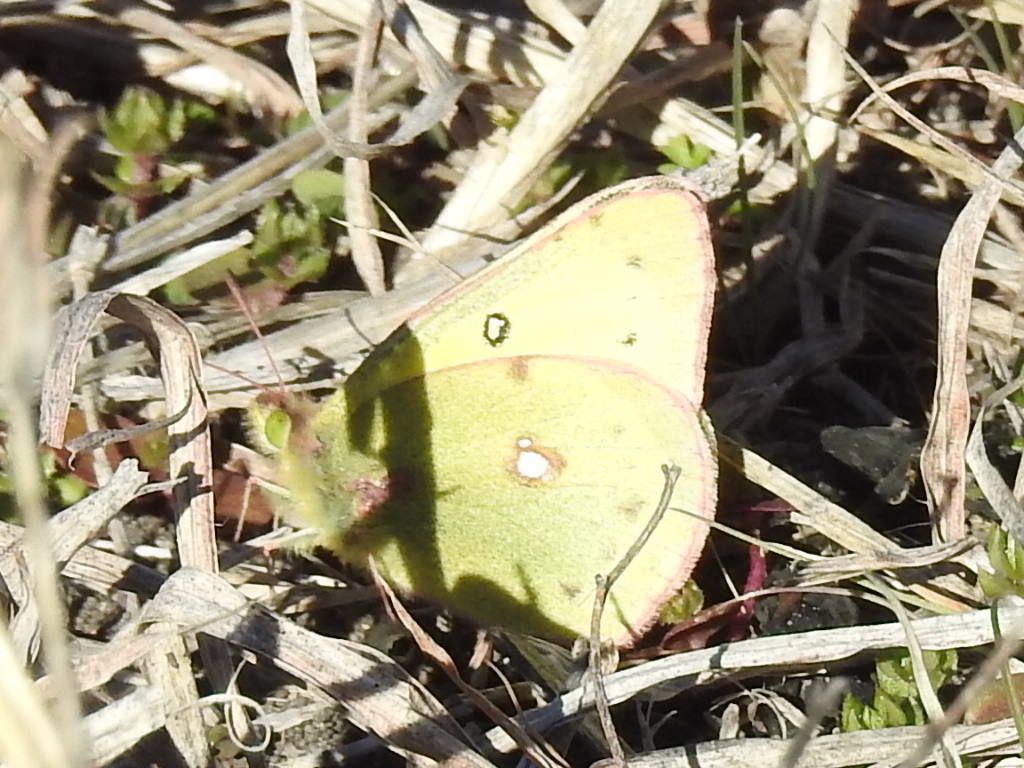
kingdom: Animalia
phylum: Arthropoda
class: Insecta
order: Lepidoptera
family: Pieridae
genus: Colias
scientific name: Colias eurytheme
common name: Alfalfa butterfly
